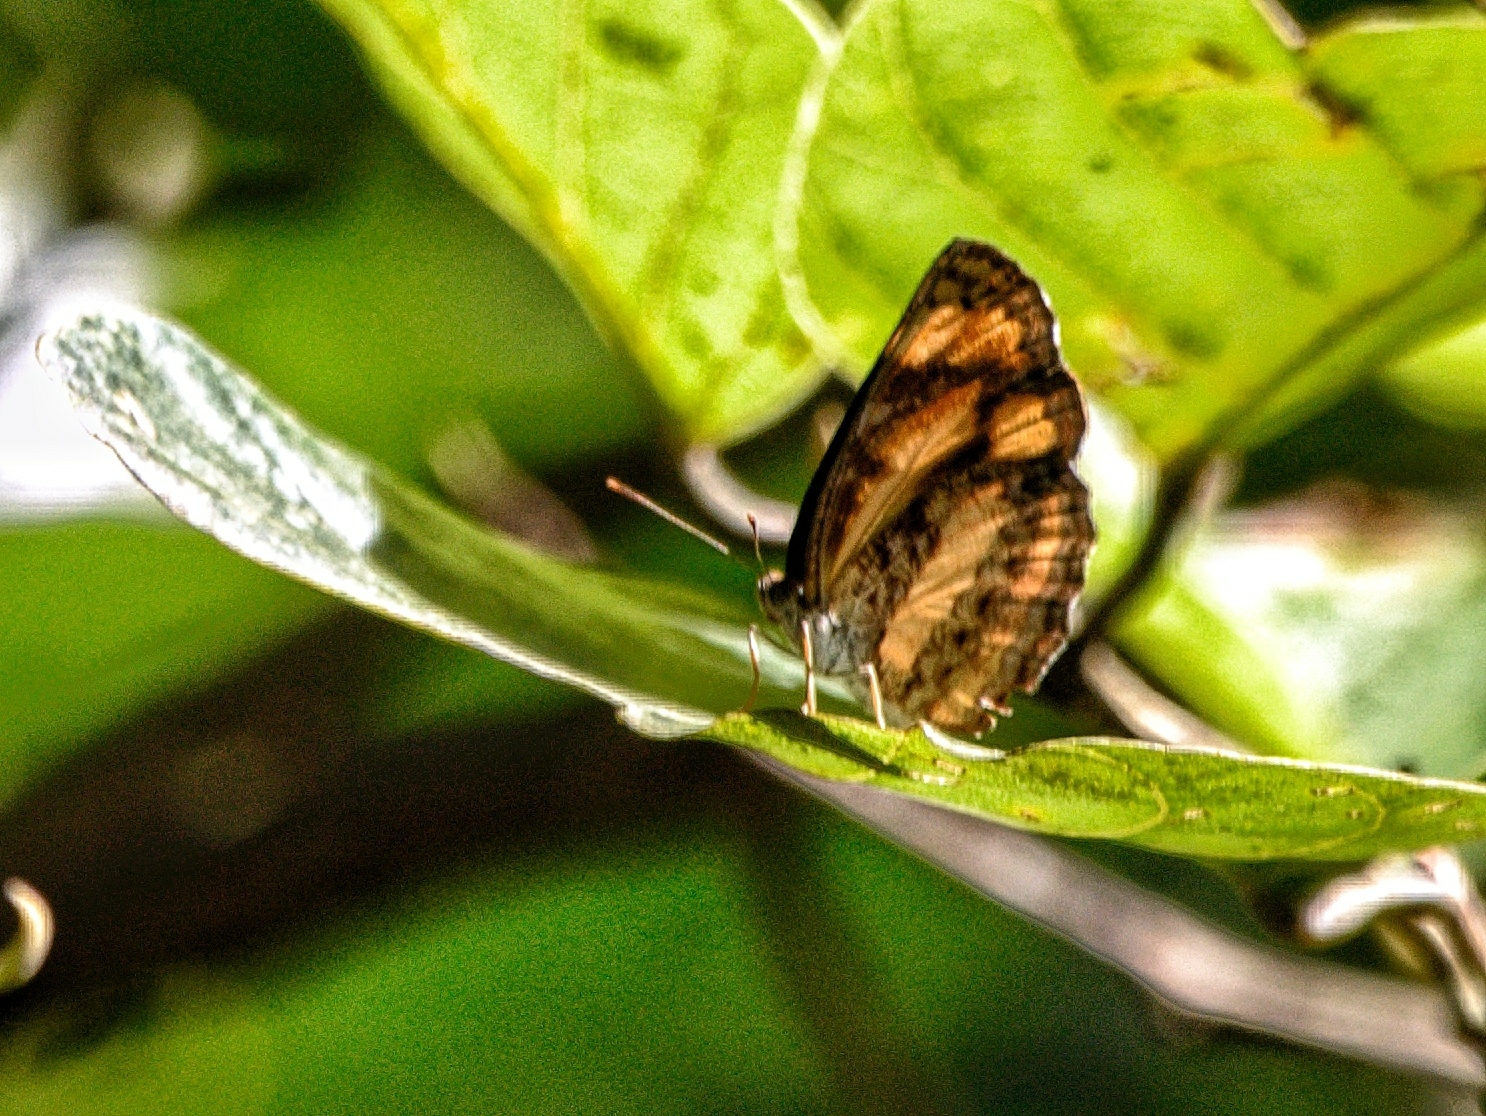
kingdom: Animalia
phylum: Arthropoda
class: Insecta
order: Lepidoptera
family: Nymphalidae
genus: Pantoporia
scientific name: Pantoporia hordonia
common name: Common lascar
